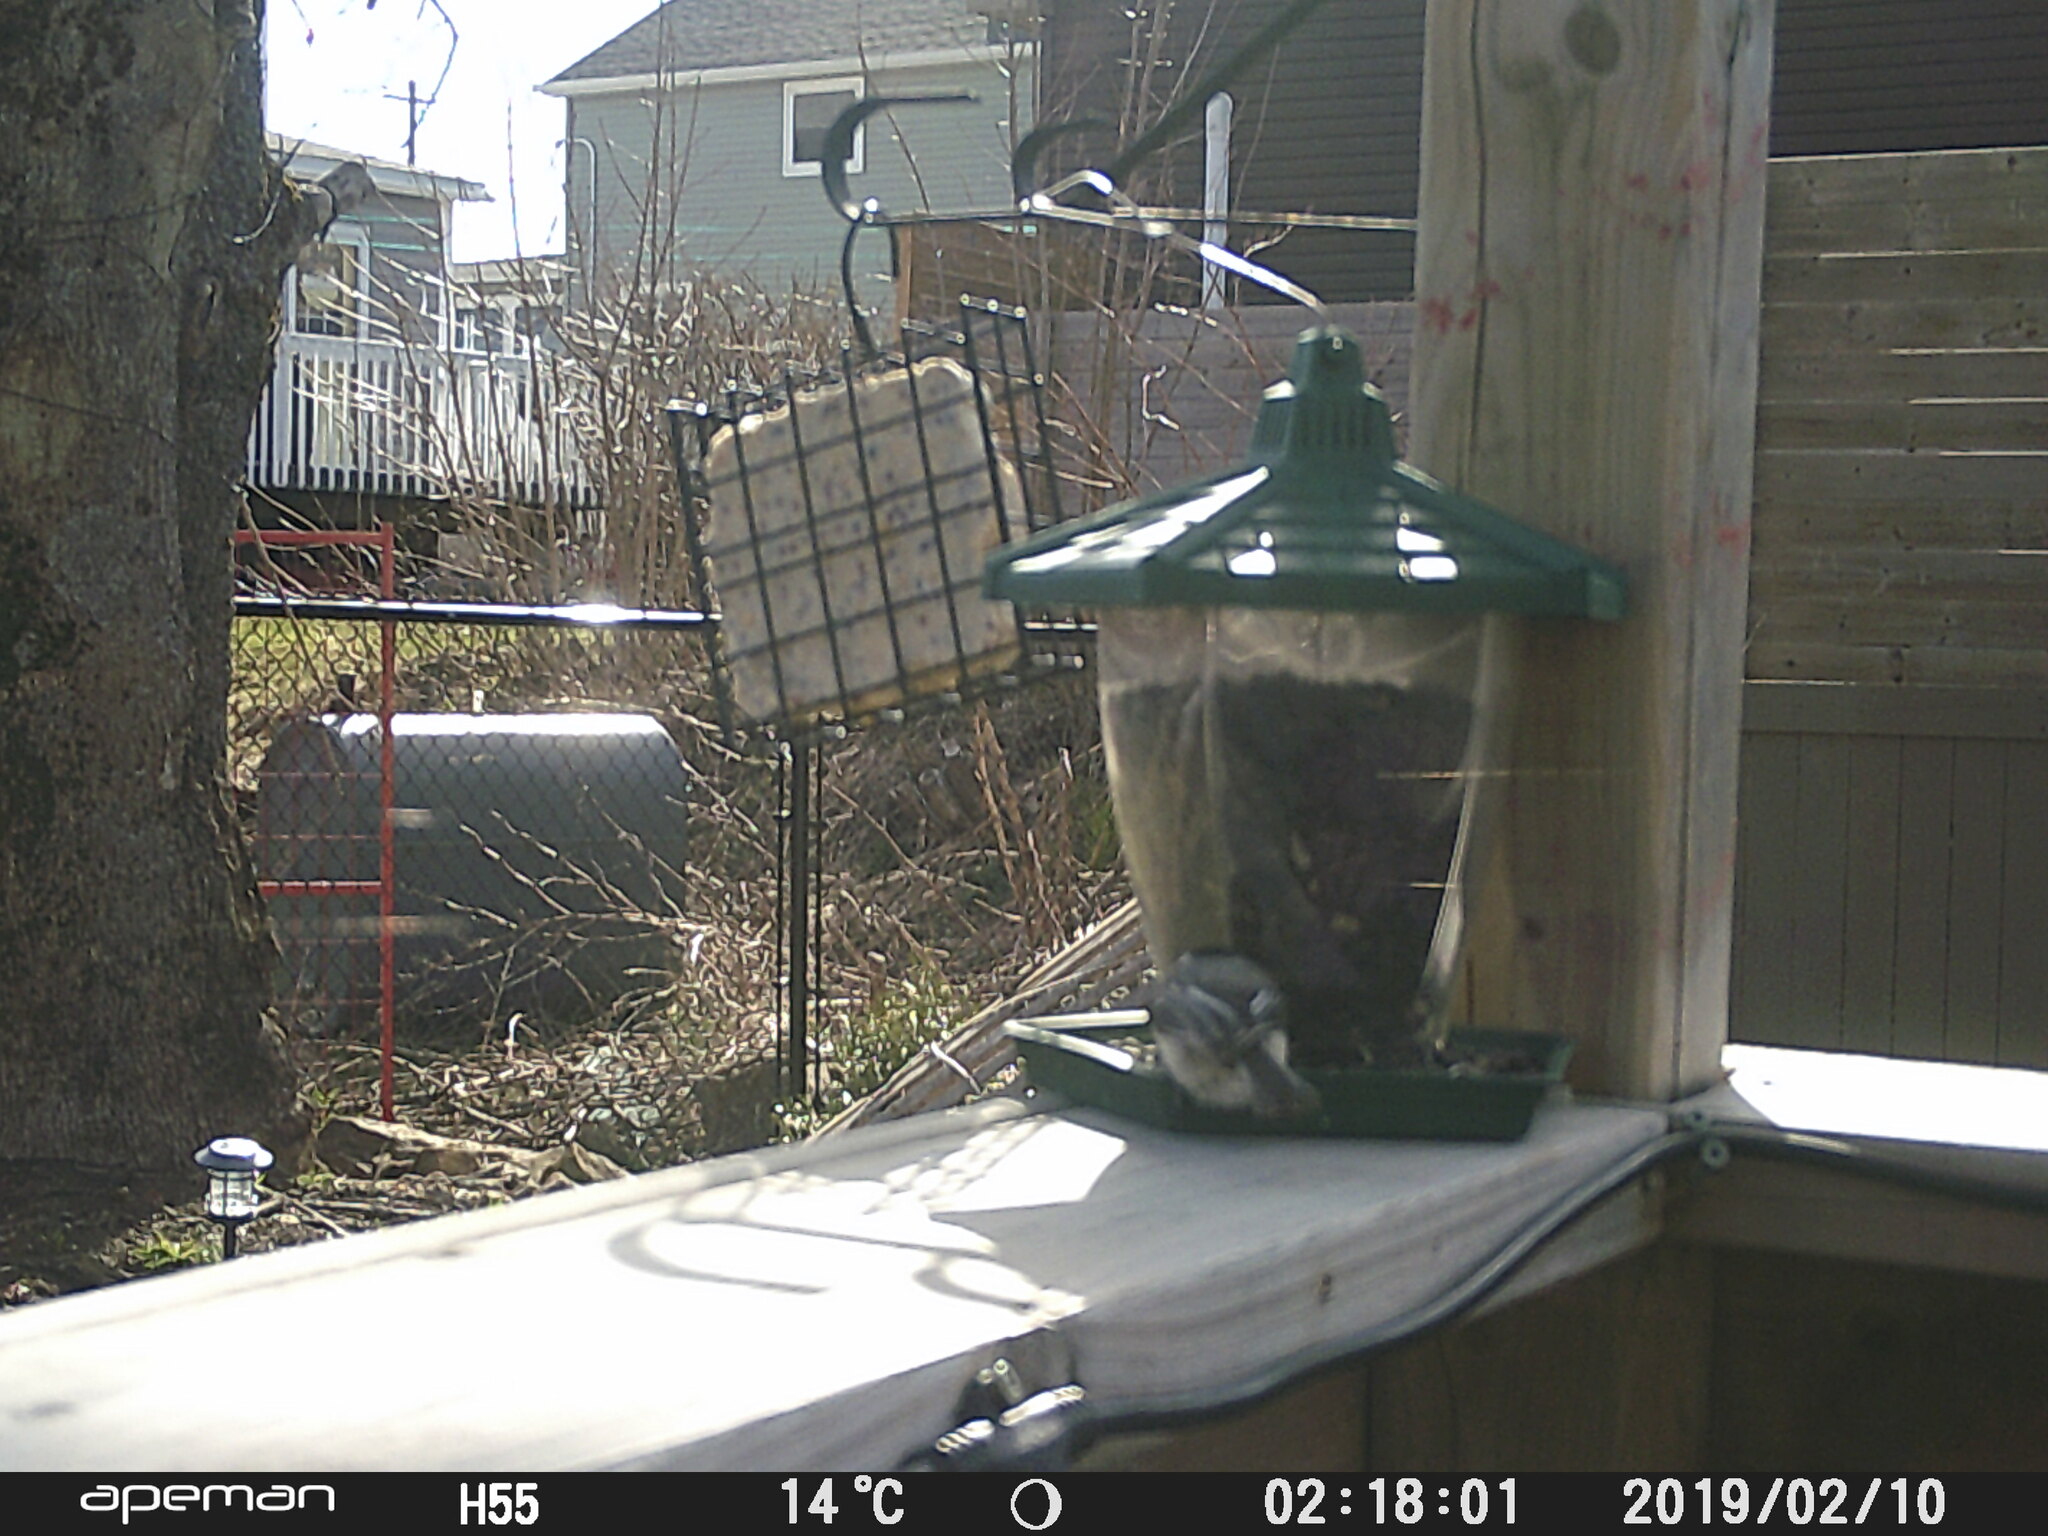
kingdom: Animalia
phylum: Chordata
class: Aves
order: Passeriformes
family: Paridae
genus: Poecile
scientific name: Poecile atricapillus
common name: Black-capped chickadee
